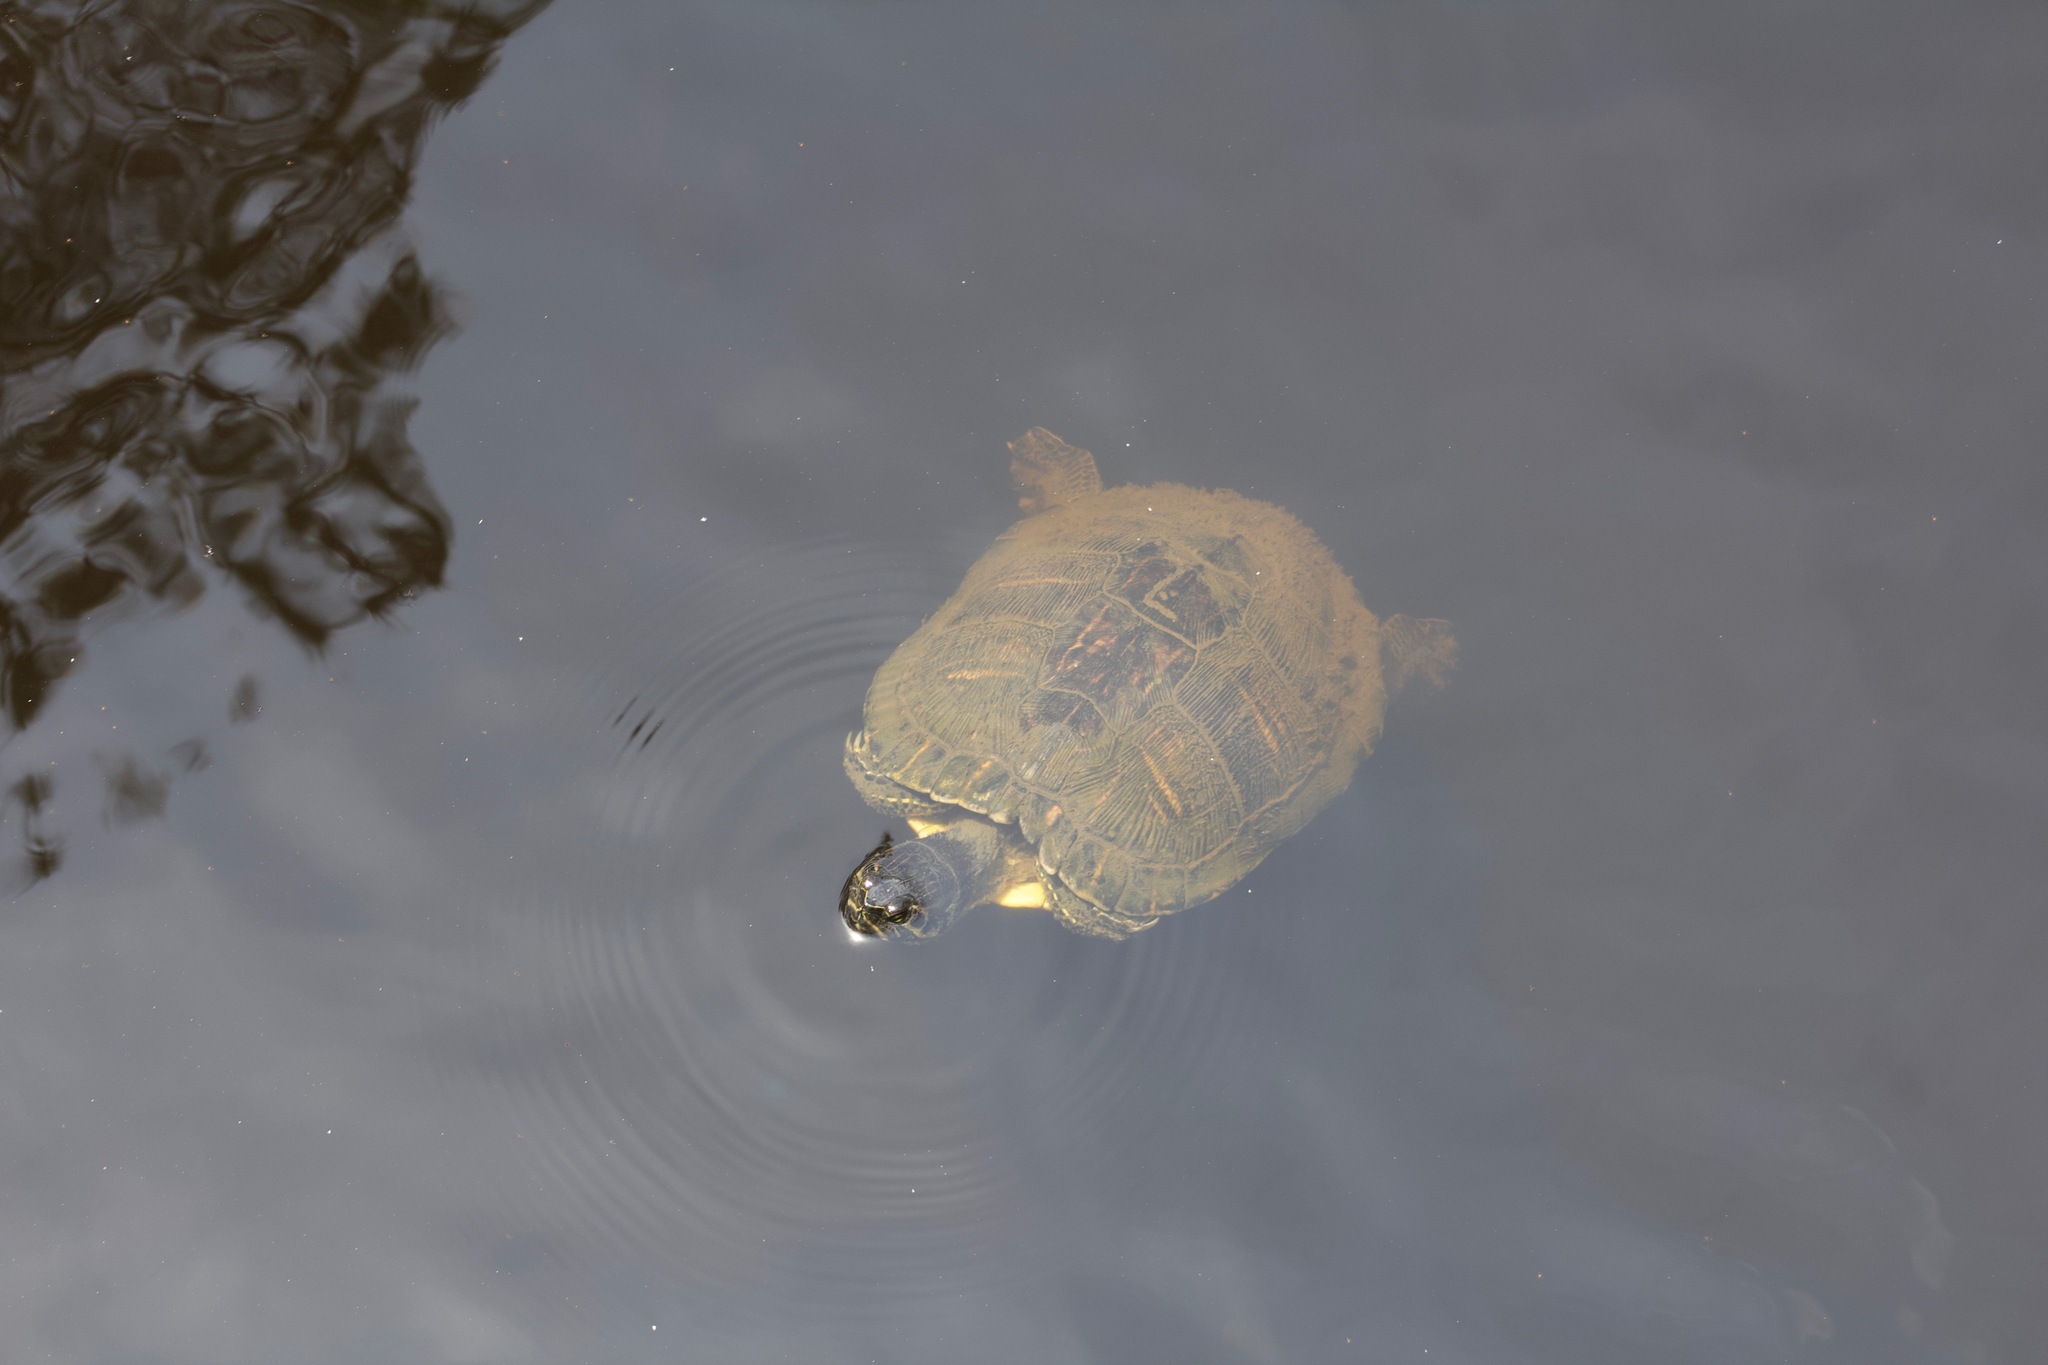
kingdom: Animalia
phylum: Chordata
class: Testudines
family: Emydidae
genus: Trachemys
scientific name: Trachemys scripta
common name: Slider
